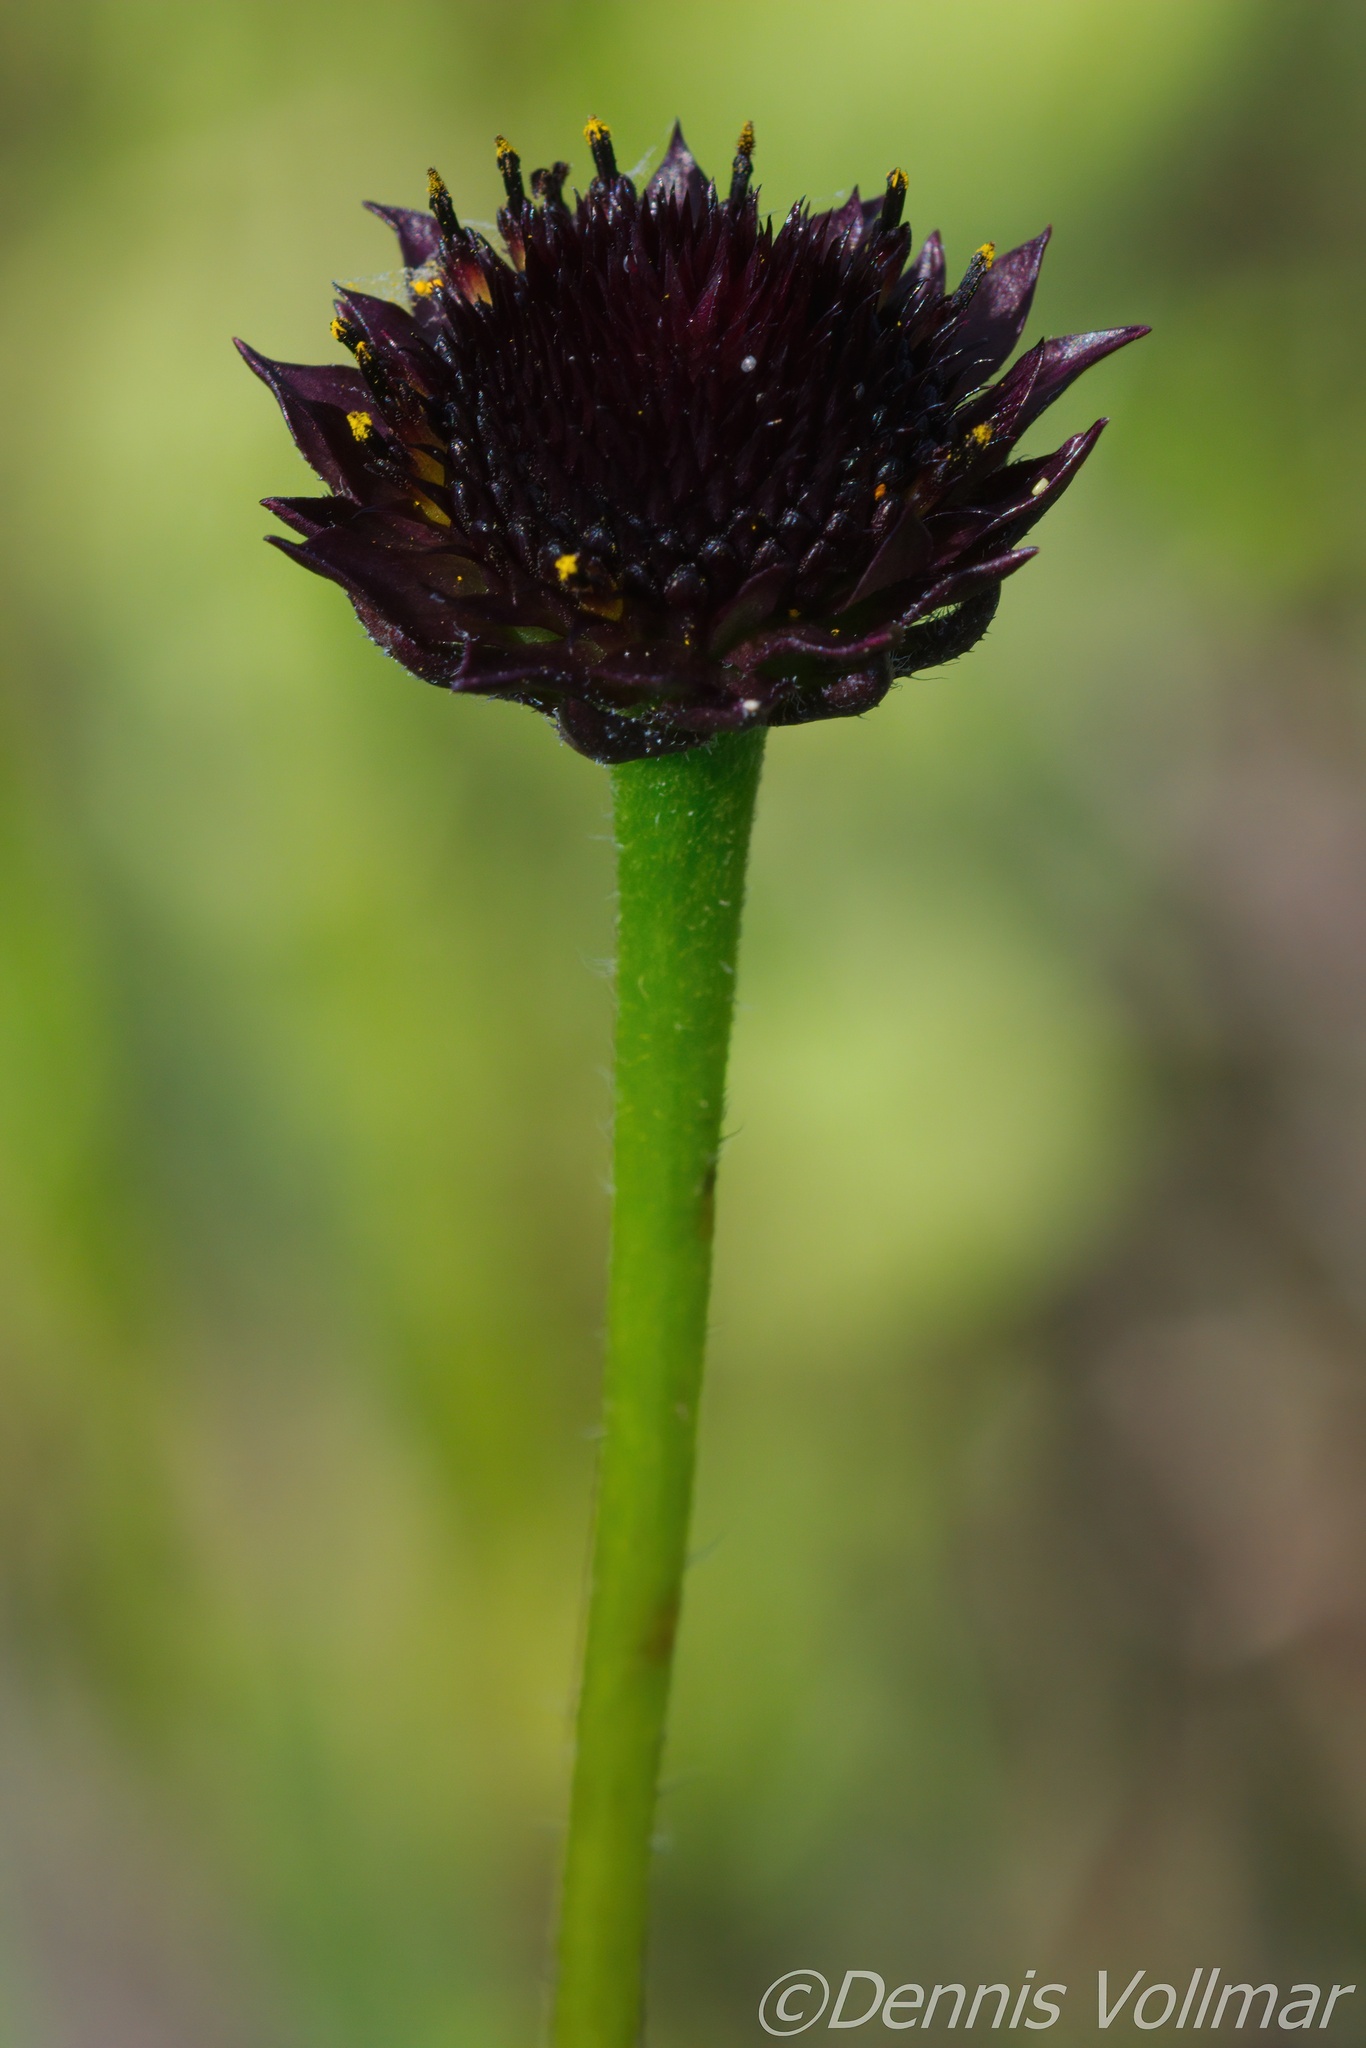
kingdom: Plantae
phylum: Tracheophyta
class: Magnoliopsida
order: Asterales
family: Asteraceae
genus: Helianthus
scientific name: Helianthus radula
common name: Pineland sunflower
